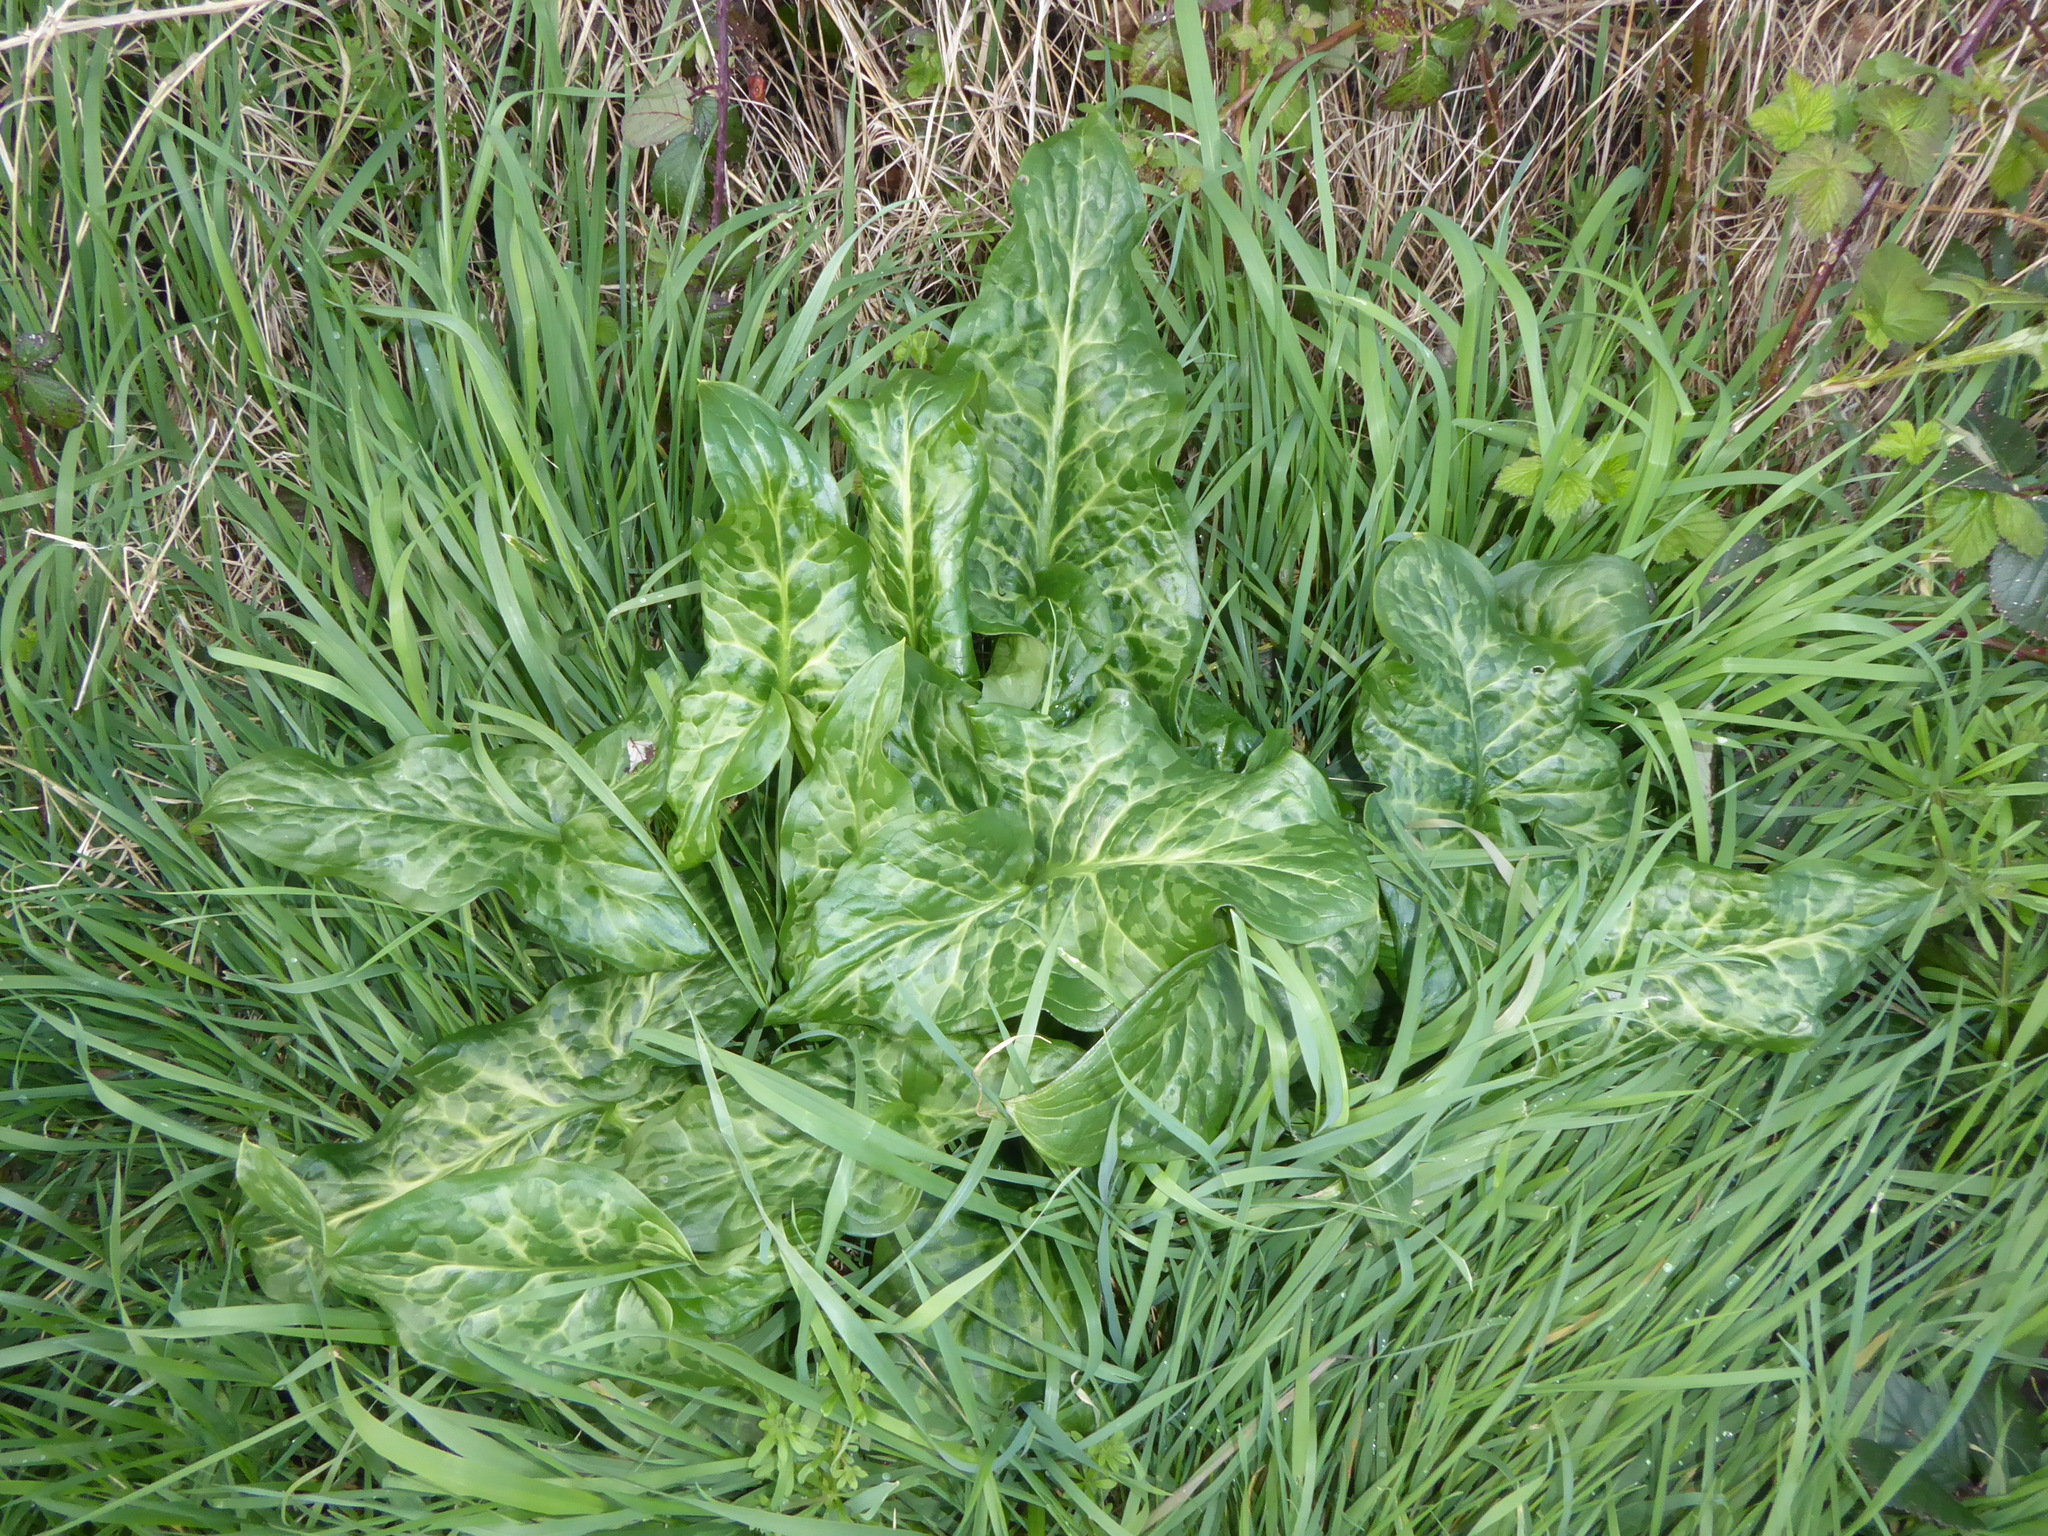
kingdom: Plantae
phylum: Tracheophyta
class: Liliopsida
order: Alismatales
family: Araceae
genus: Arum
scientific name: Arum italicum
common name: Italian lords-and-ladies
